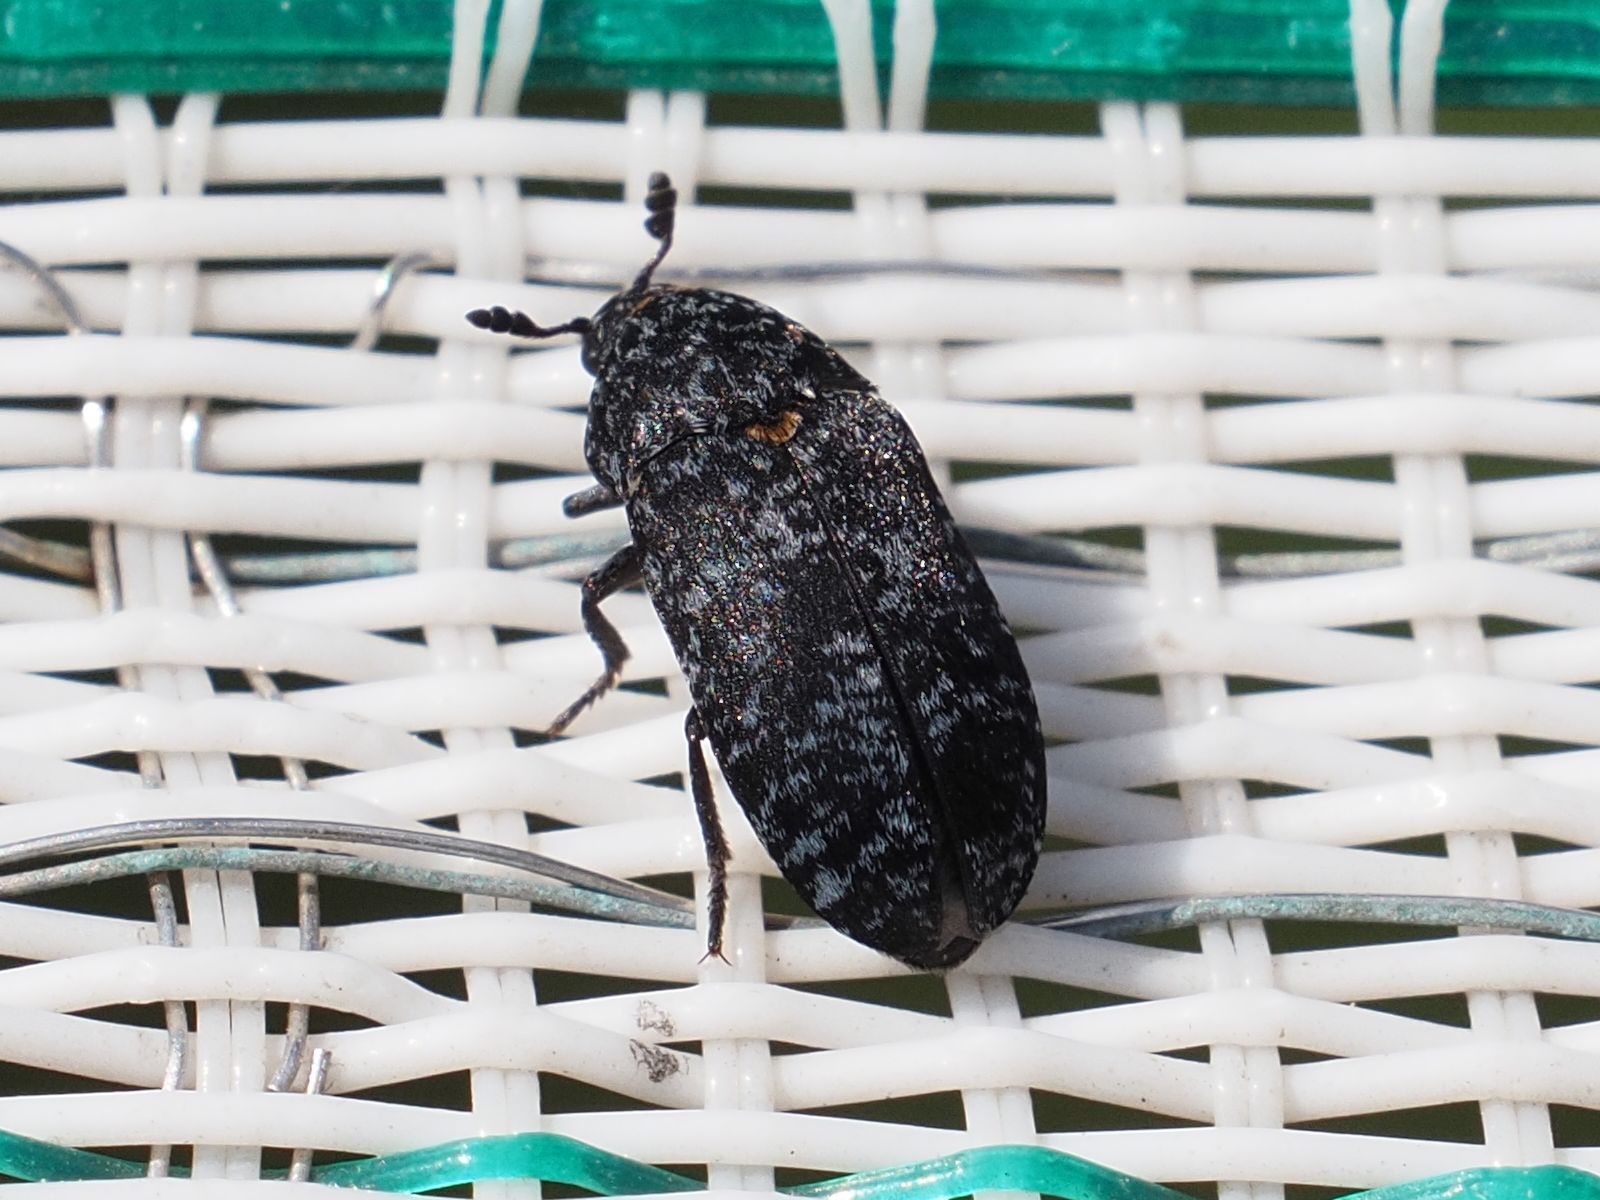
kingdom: Animalia
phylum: Arthropoda
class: Insecta
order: Coleoptera
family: Dermestidae
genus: Dermestes
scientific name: Dermestes murinus
